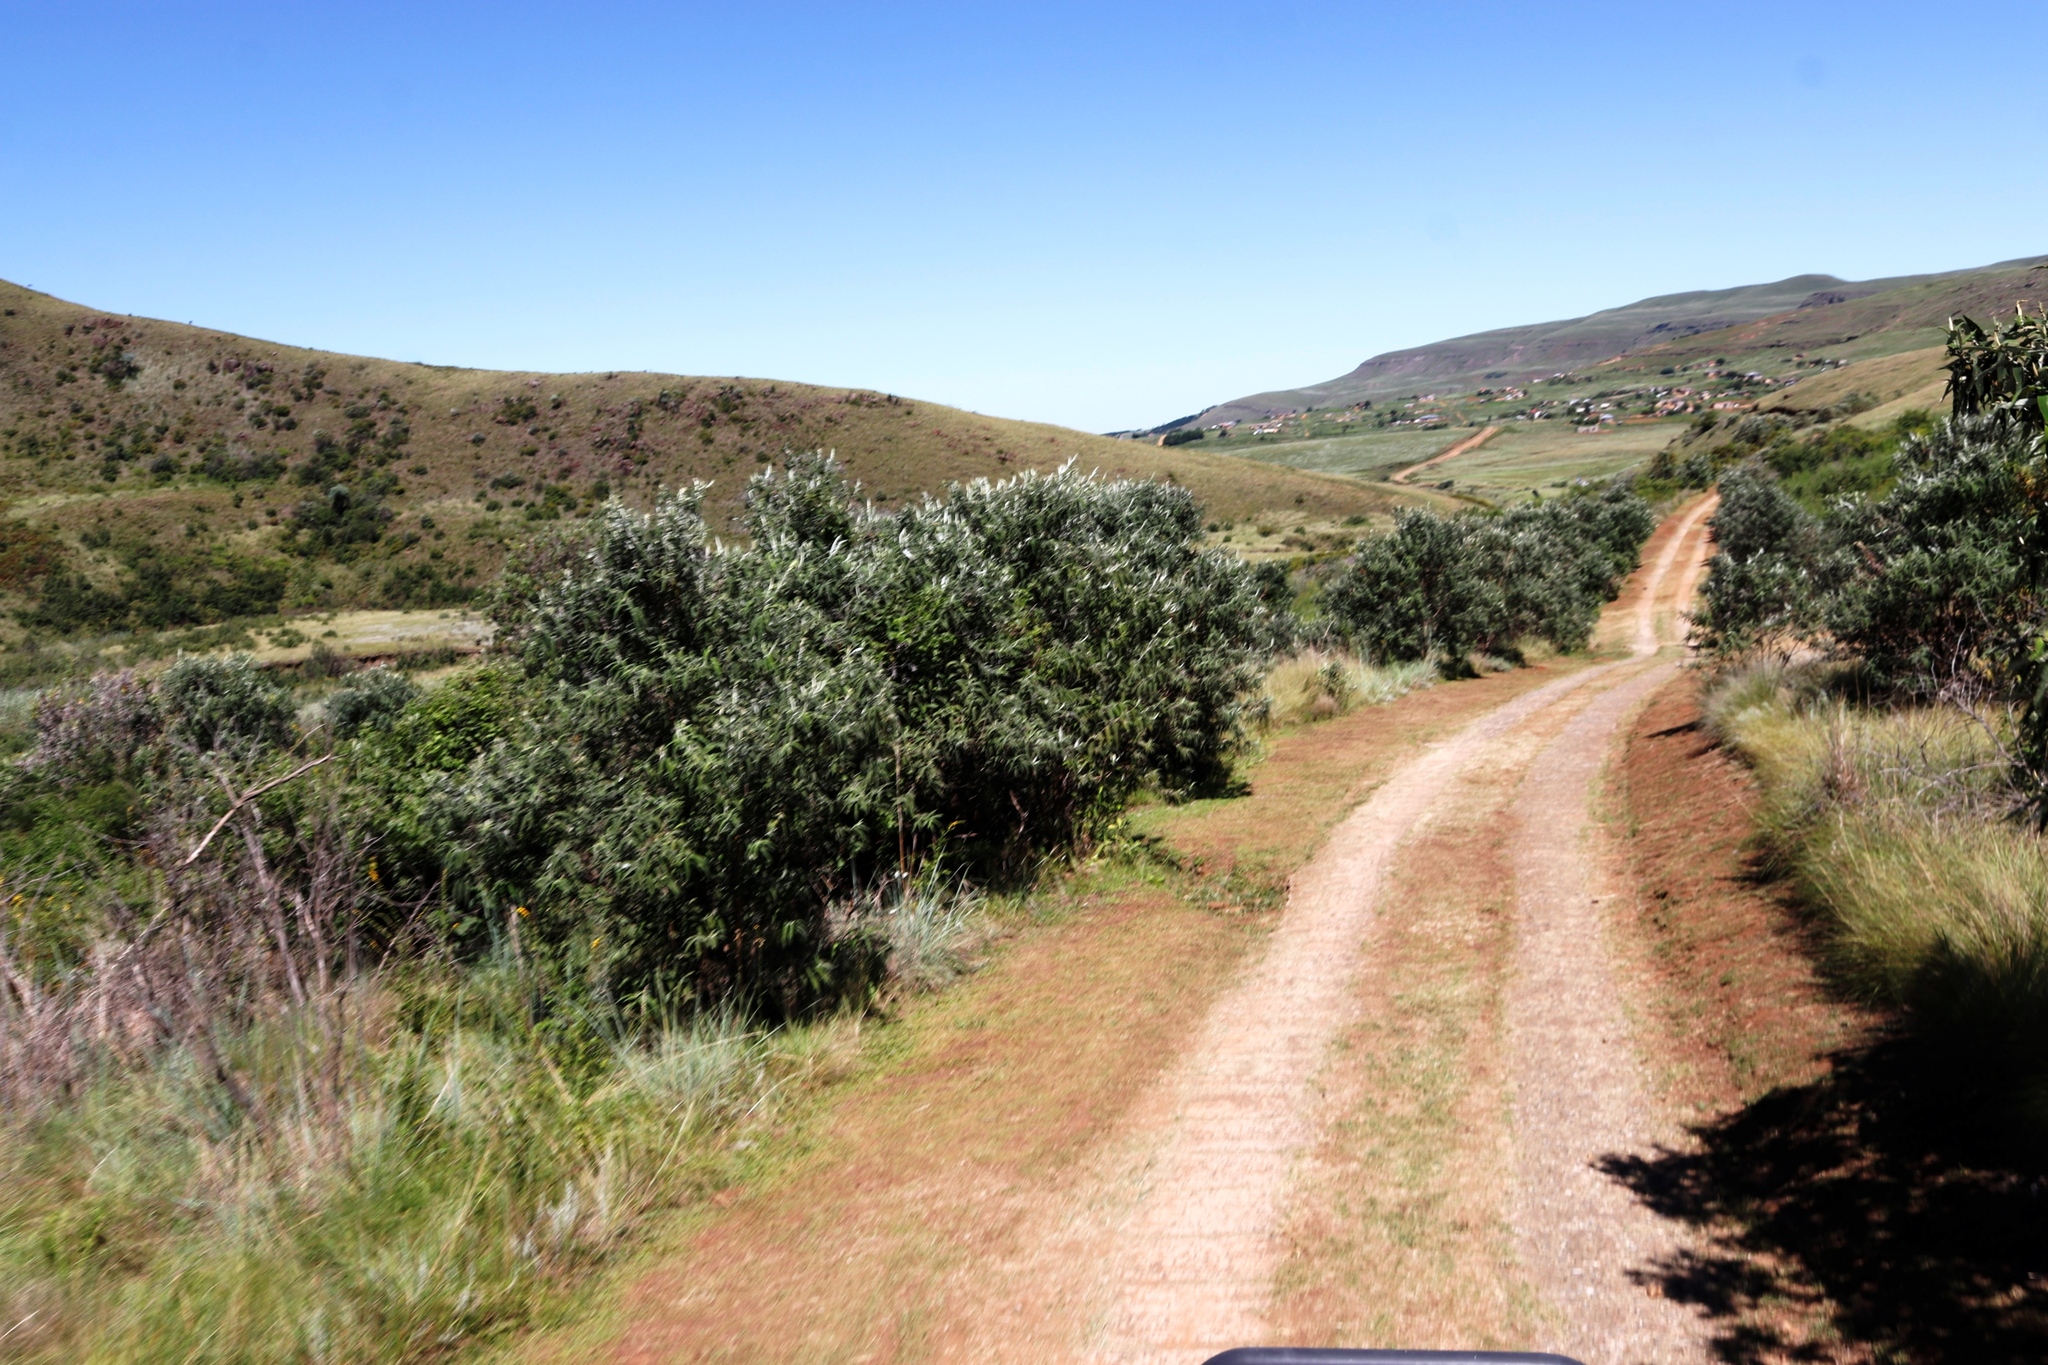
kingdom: Plantae
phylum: Tracheophyta
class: Magnoliopsida
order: Lamiales
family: Scrophulariaceae
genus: Buddleja
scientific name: Buddleja salviifolia
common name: Sagewood
